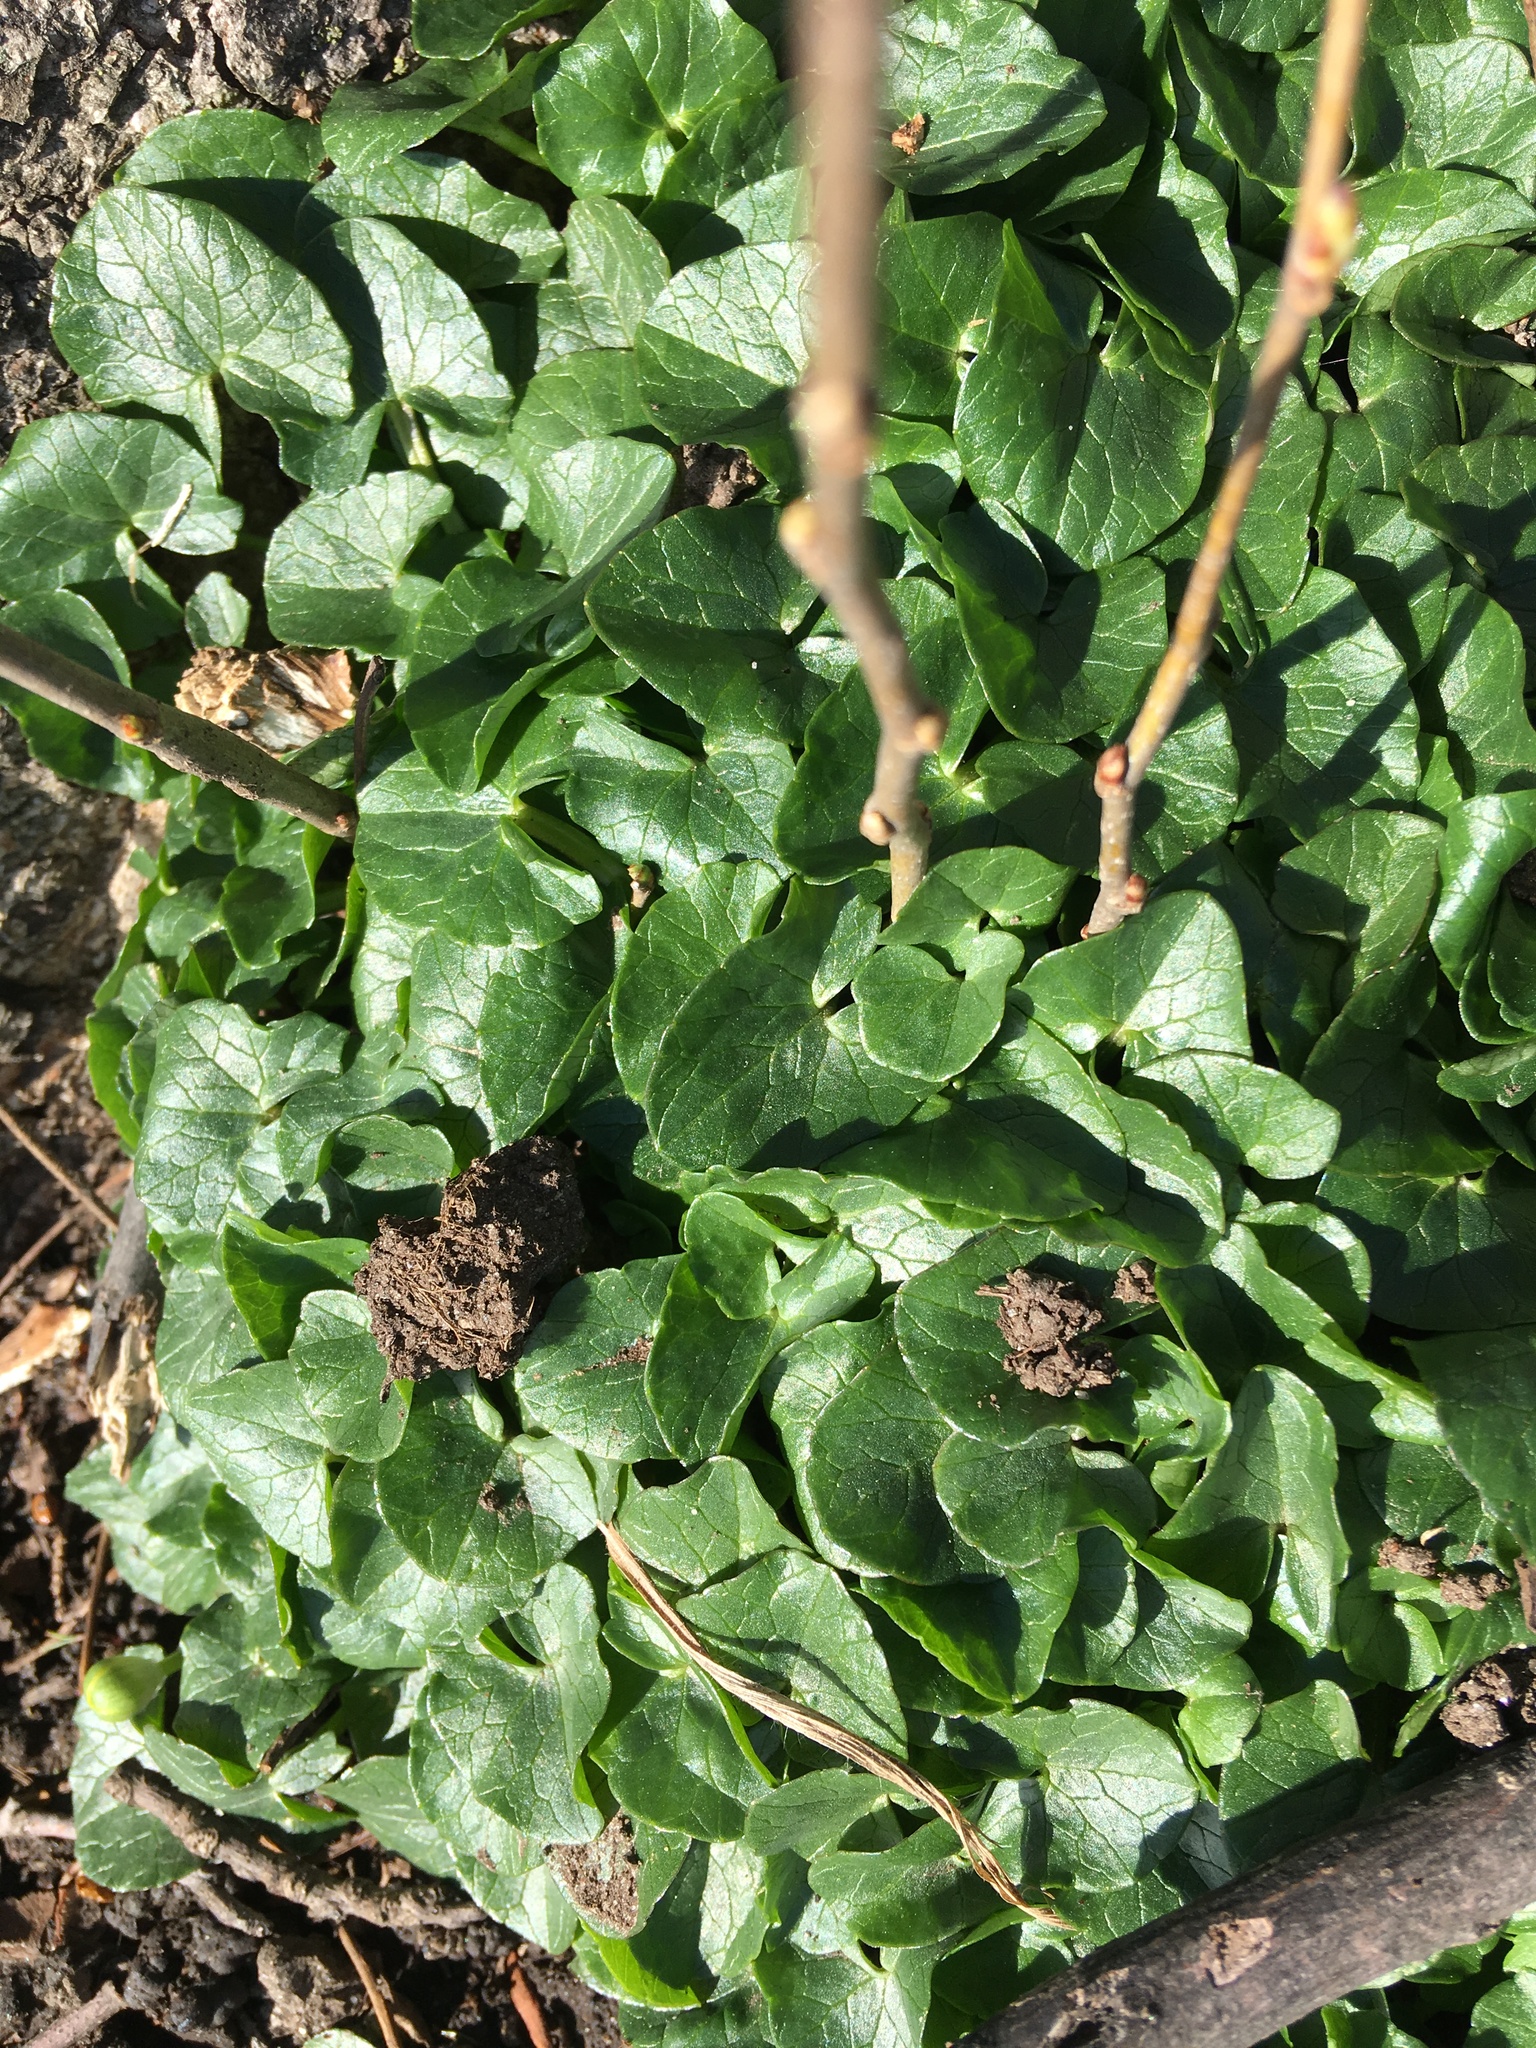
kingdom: Plantae
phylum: Tracheophyta
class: Magnoliopsida
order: Ranunculales
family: Ranunculaceae
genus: Ficaria
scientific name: Ficaria verna
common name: Lesser celandine
